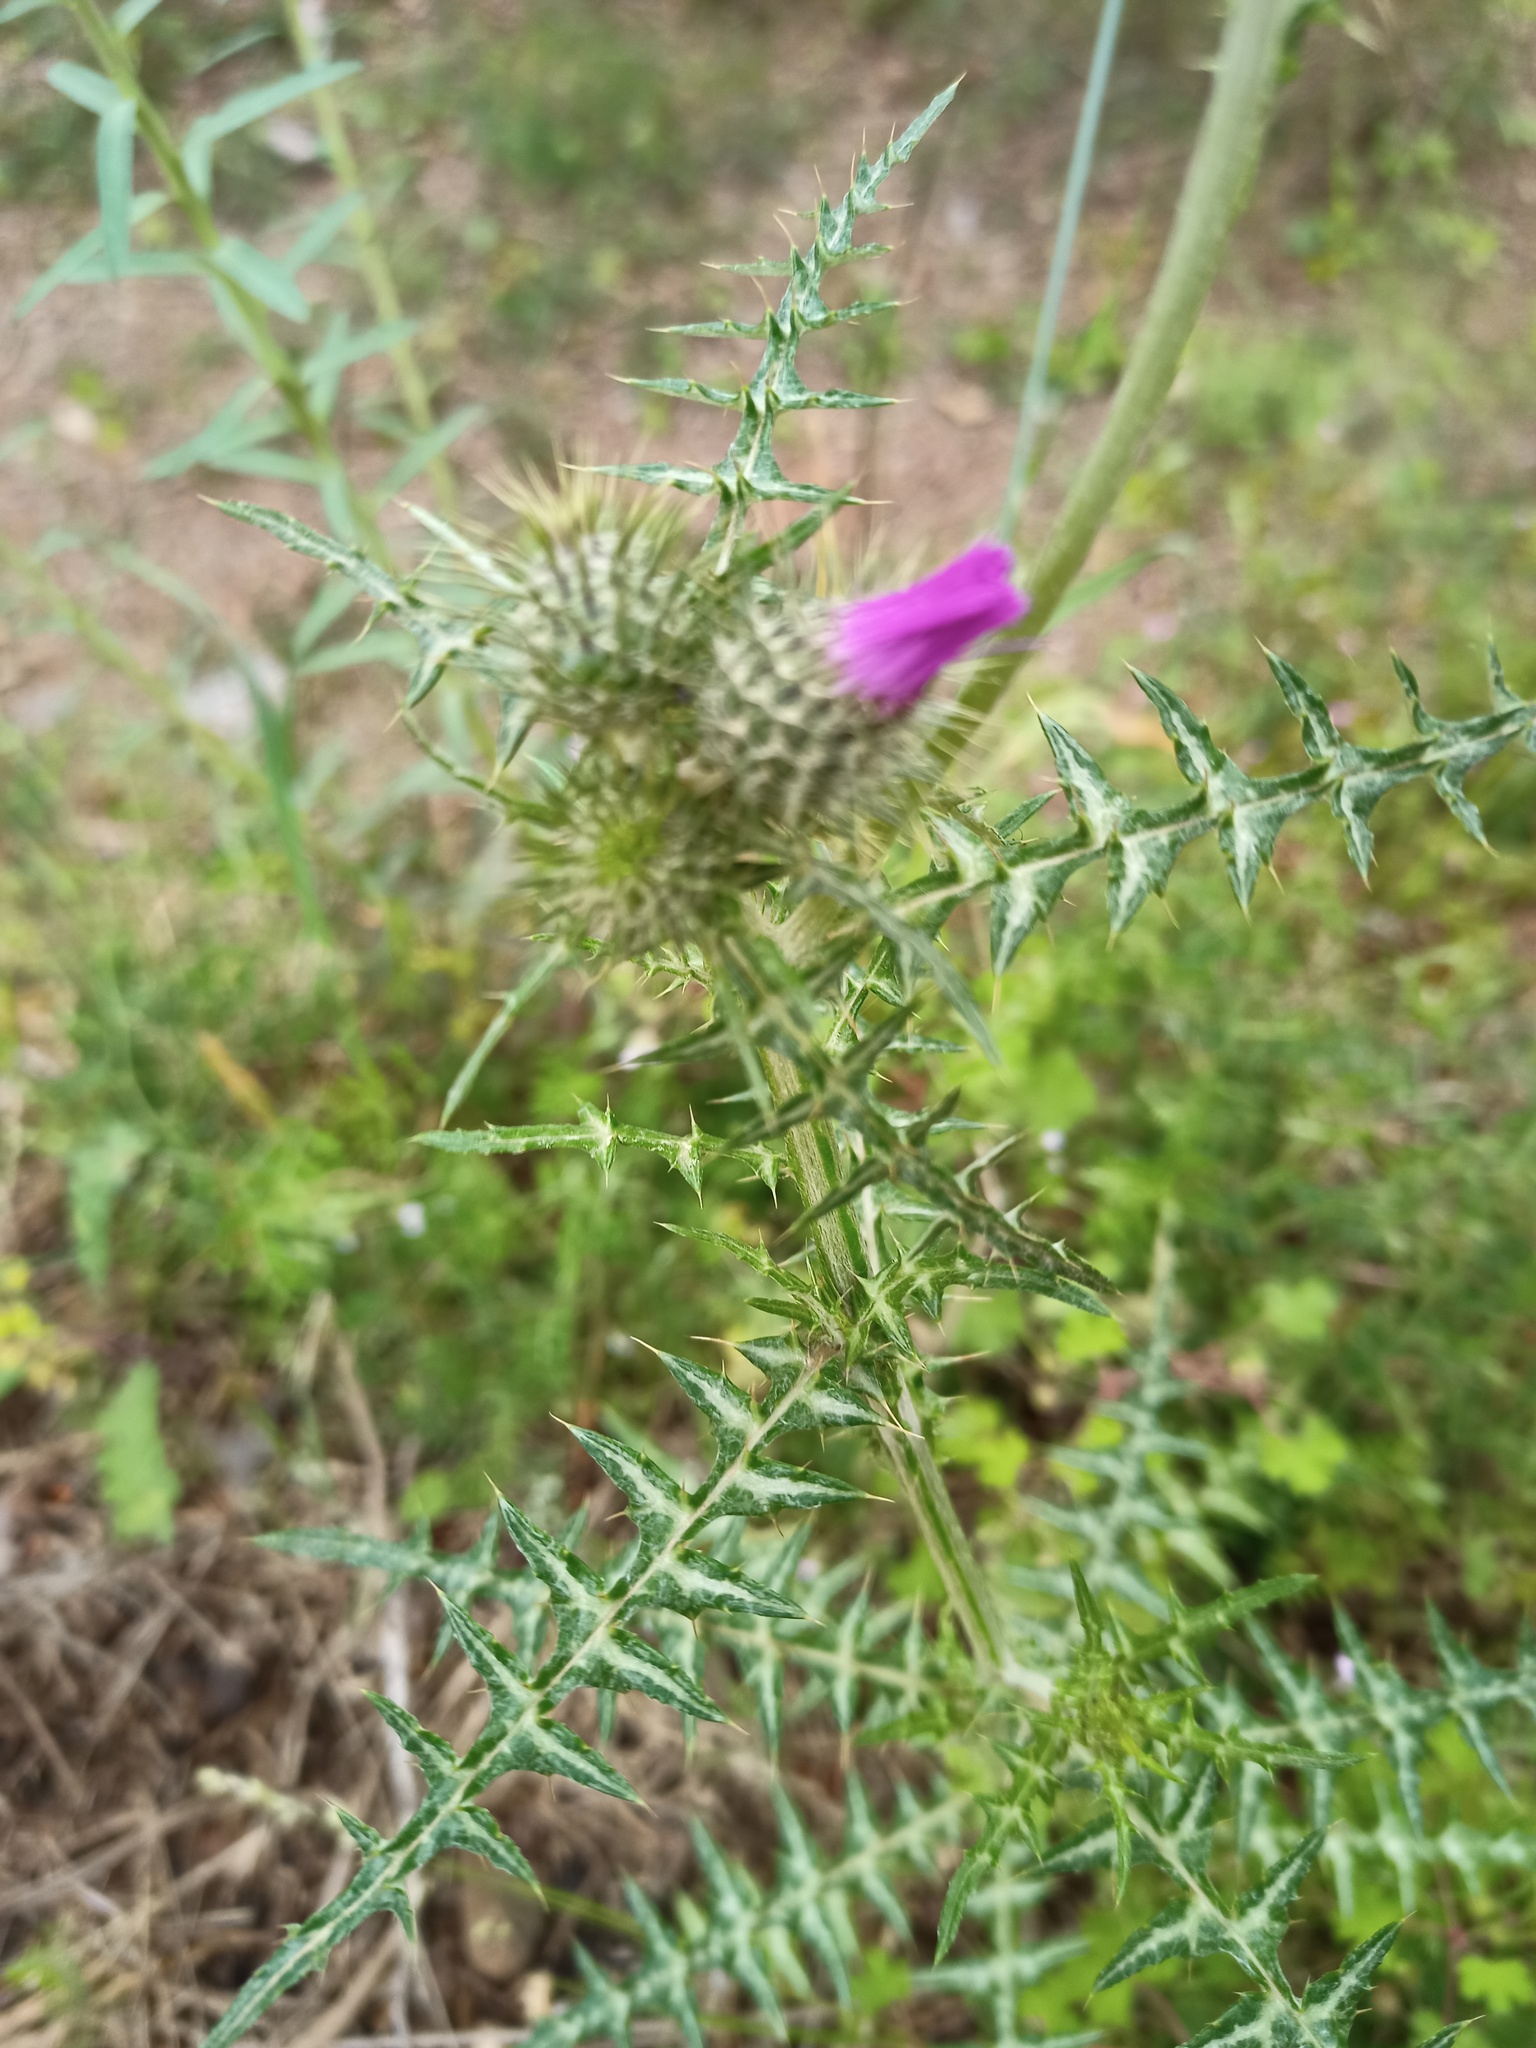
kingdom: Plantae
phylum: Tracheophyta
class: Magnoliopsida
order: Asterales
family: Asteraceae
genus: Galactites
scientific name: Galactites tomentosa
